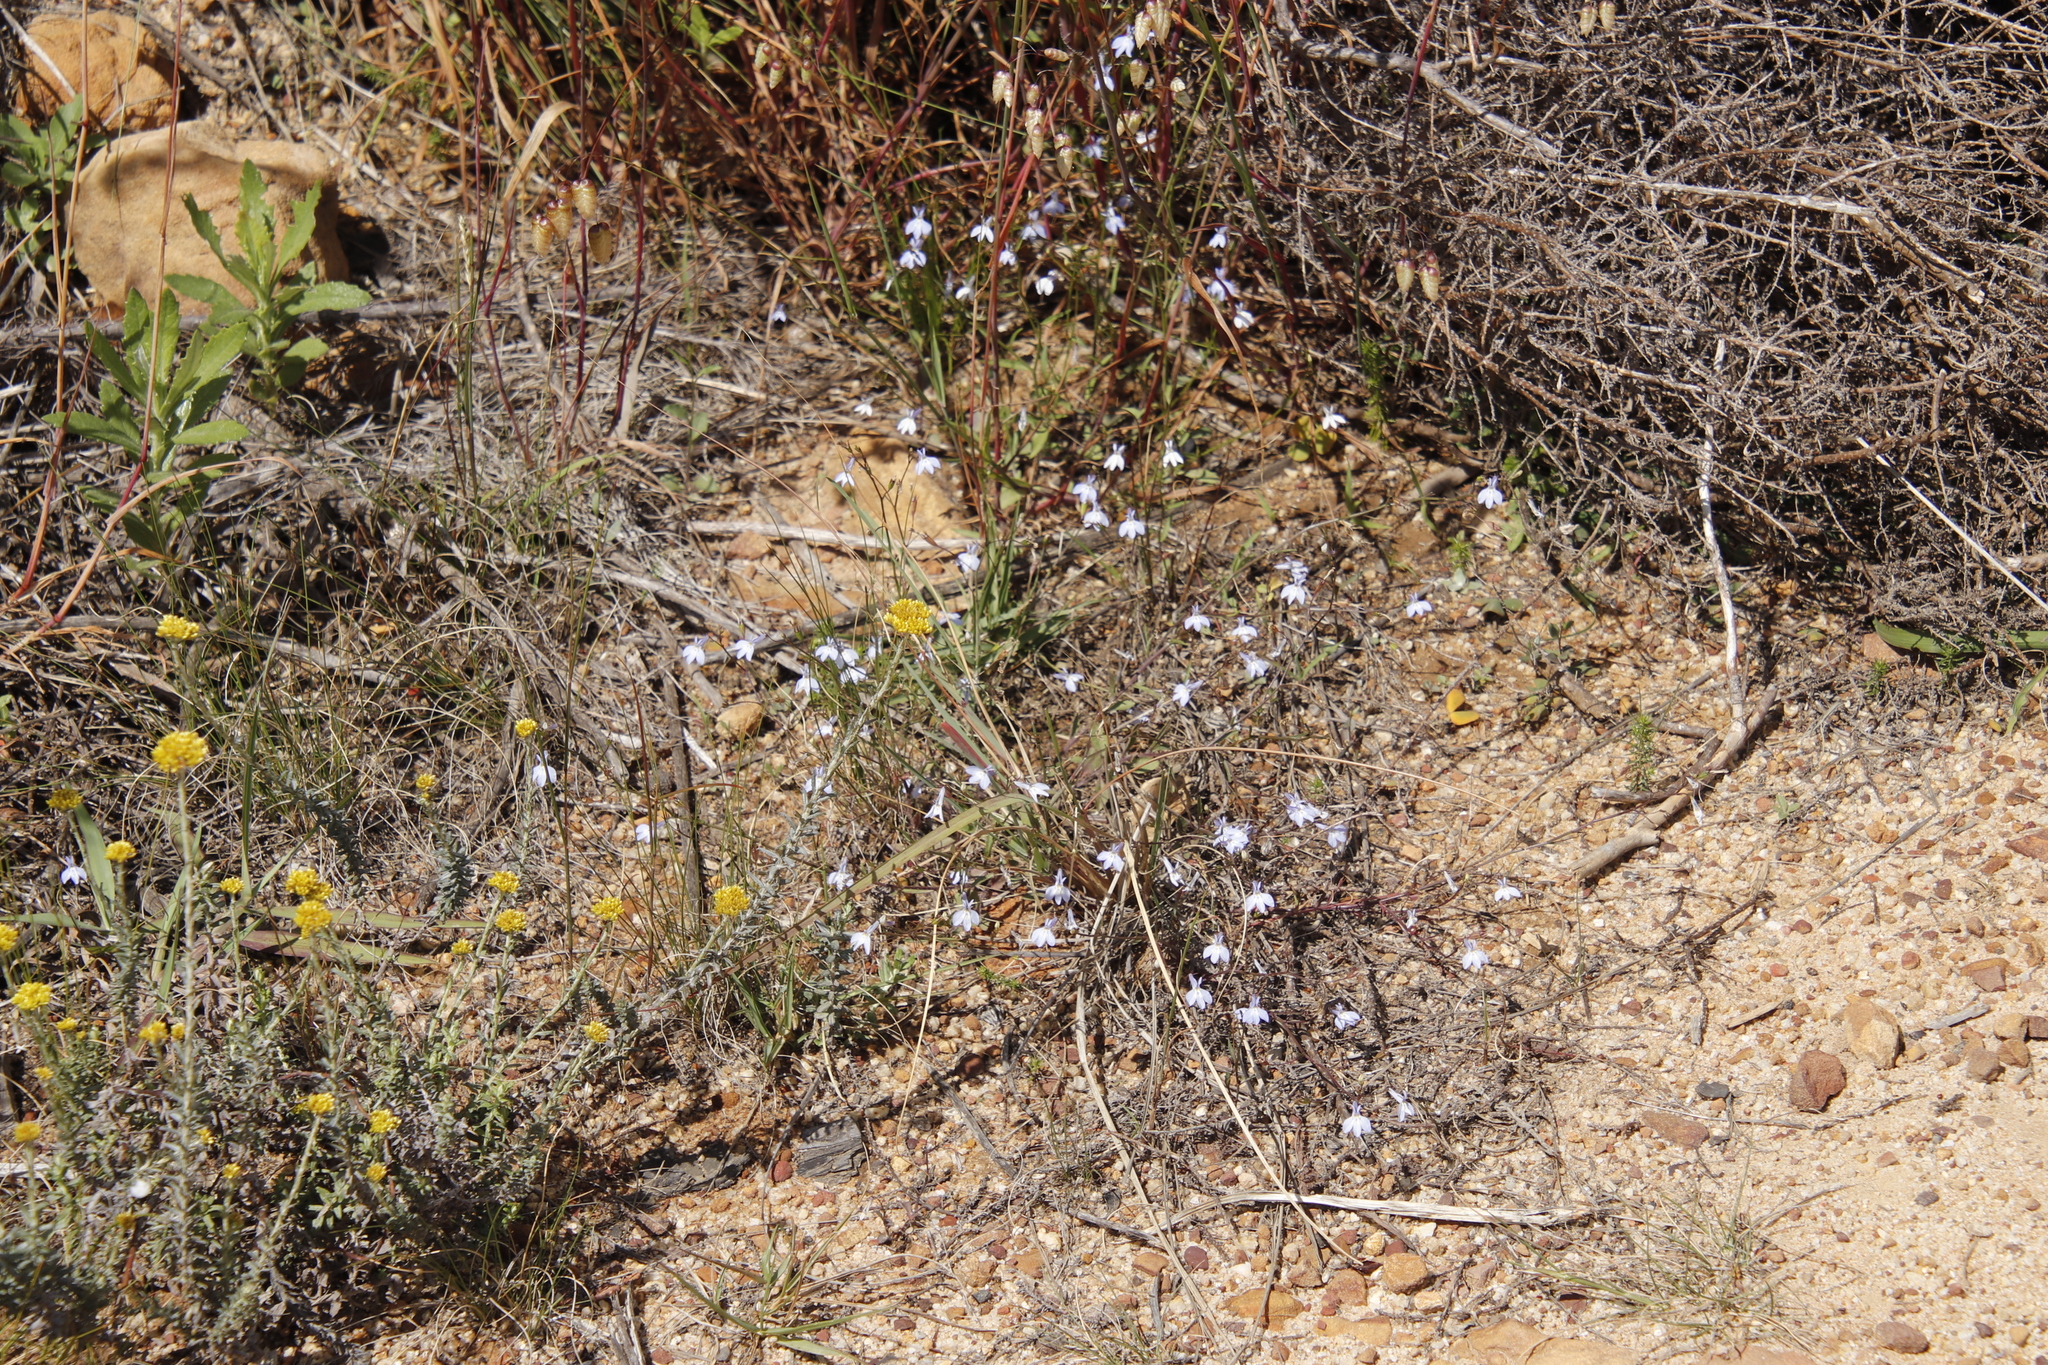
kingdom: Plantae
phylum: Tracheophyta
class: Magnoliopsida
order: Asterales
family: Campanulaceae
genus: Lobelia
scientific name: Lobelia erinus
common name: Edging lobelia
